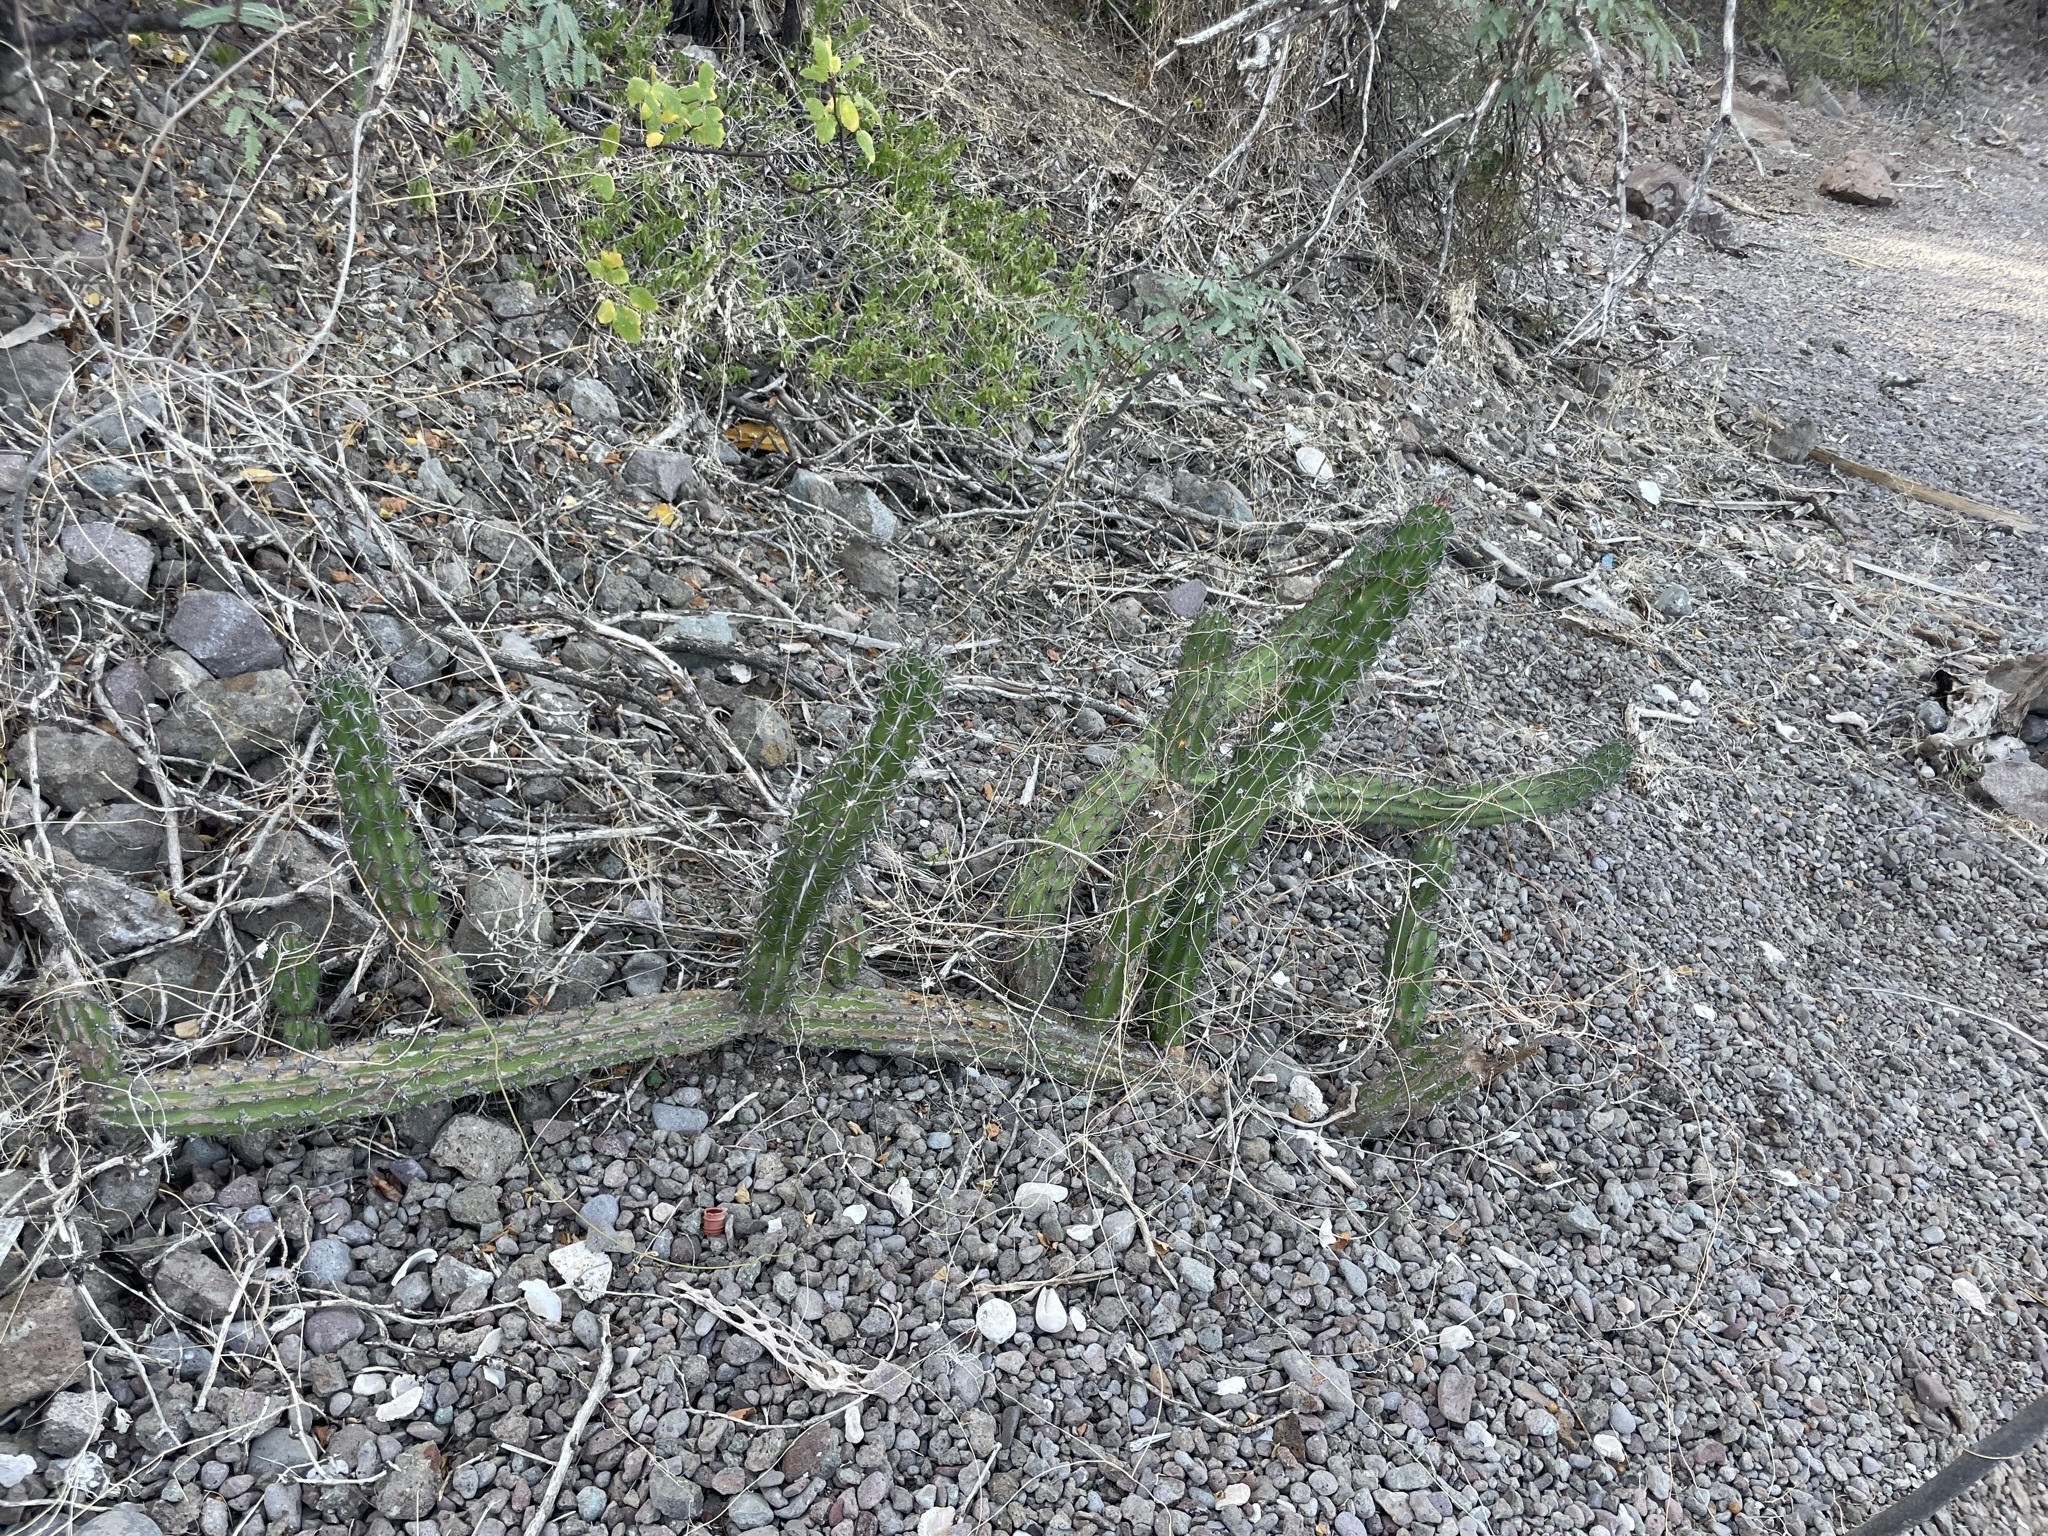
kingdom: Plantae
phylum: Tracheophyta
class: Magnoliopsida
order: Caryophyllales
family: Cactaceae
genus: Stenocereus
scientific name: Stenocereus gummosus
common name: Dagger cactus
